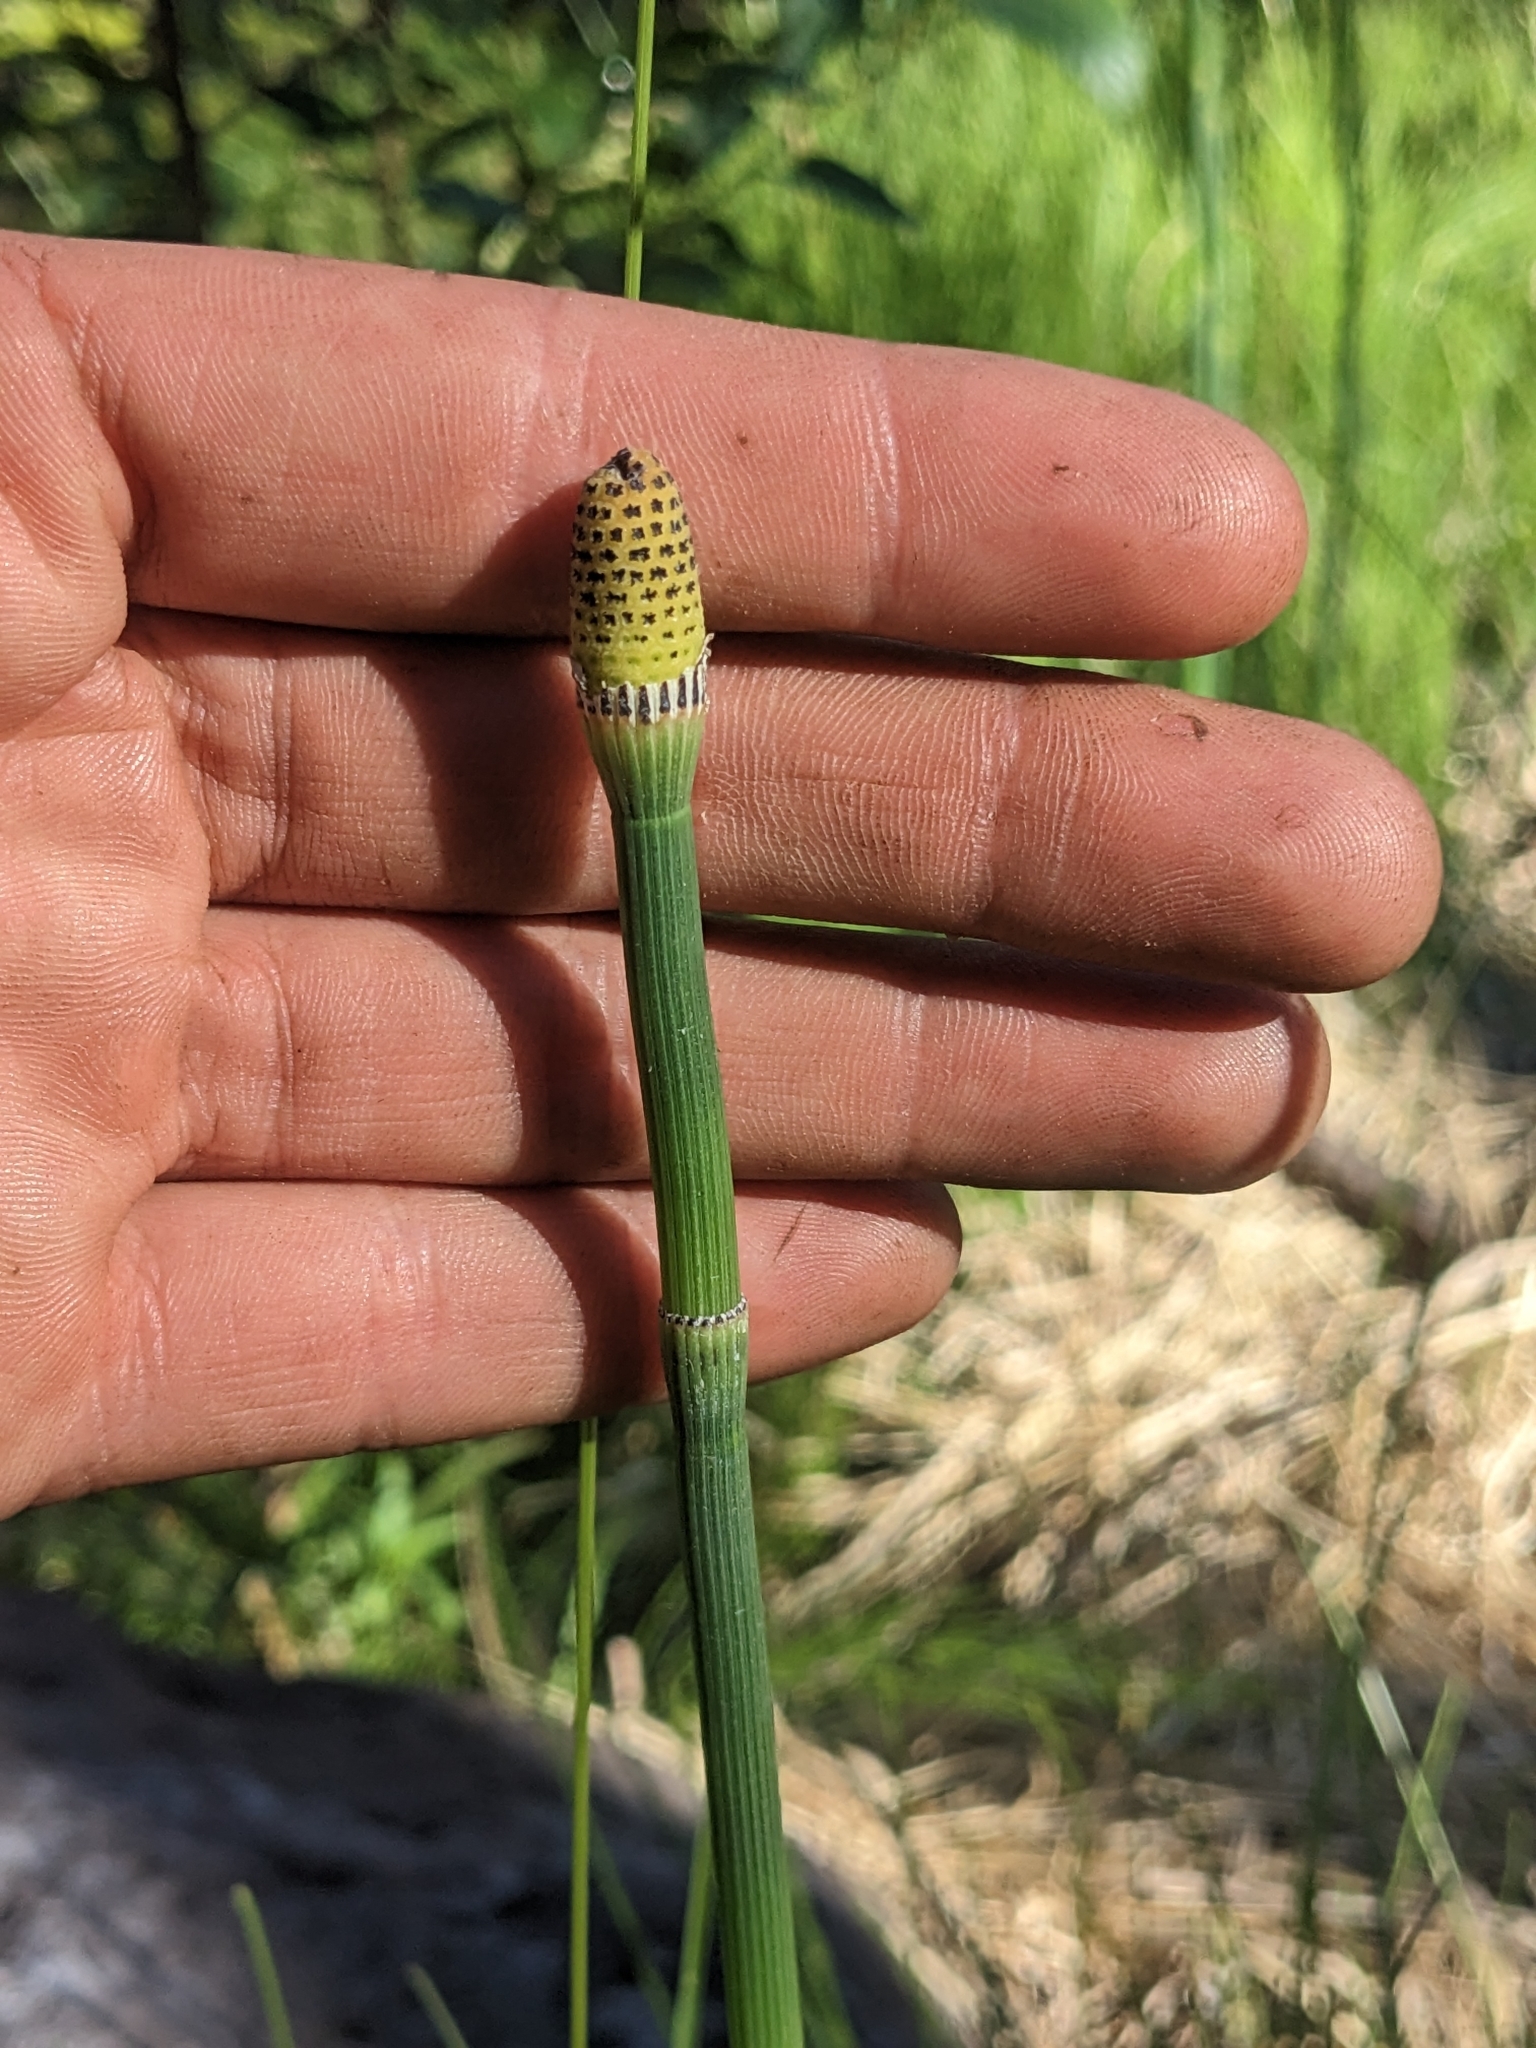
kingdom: Plantae
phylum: Tracheophyta
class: Polypodiopsida
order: Equisetales
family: Equisetaceae
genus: Equisetum
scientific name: Equisetum laevigatum
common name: Smooth scouring-rush
